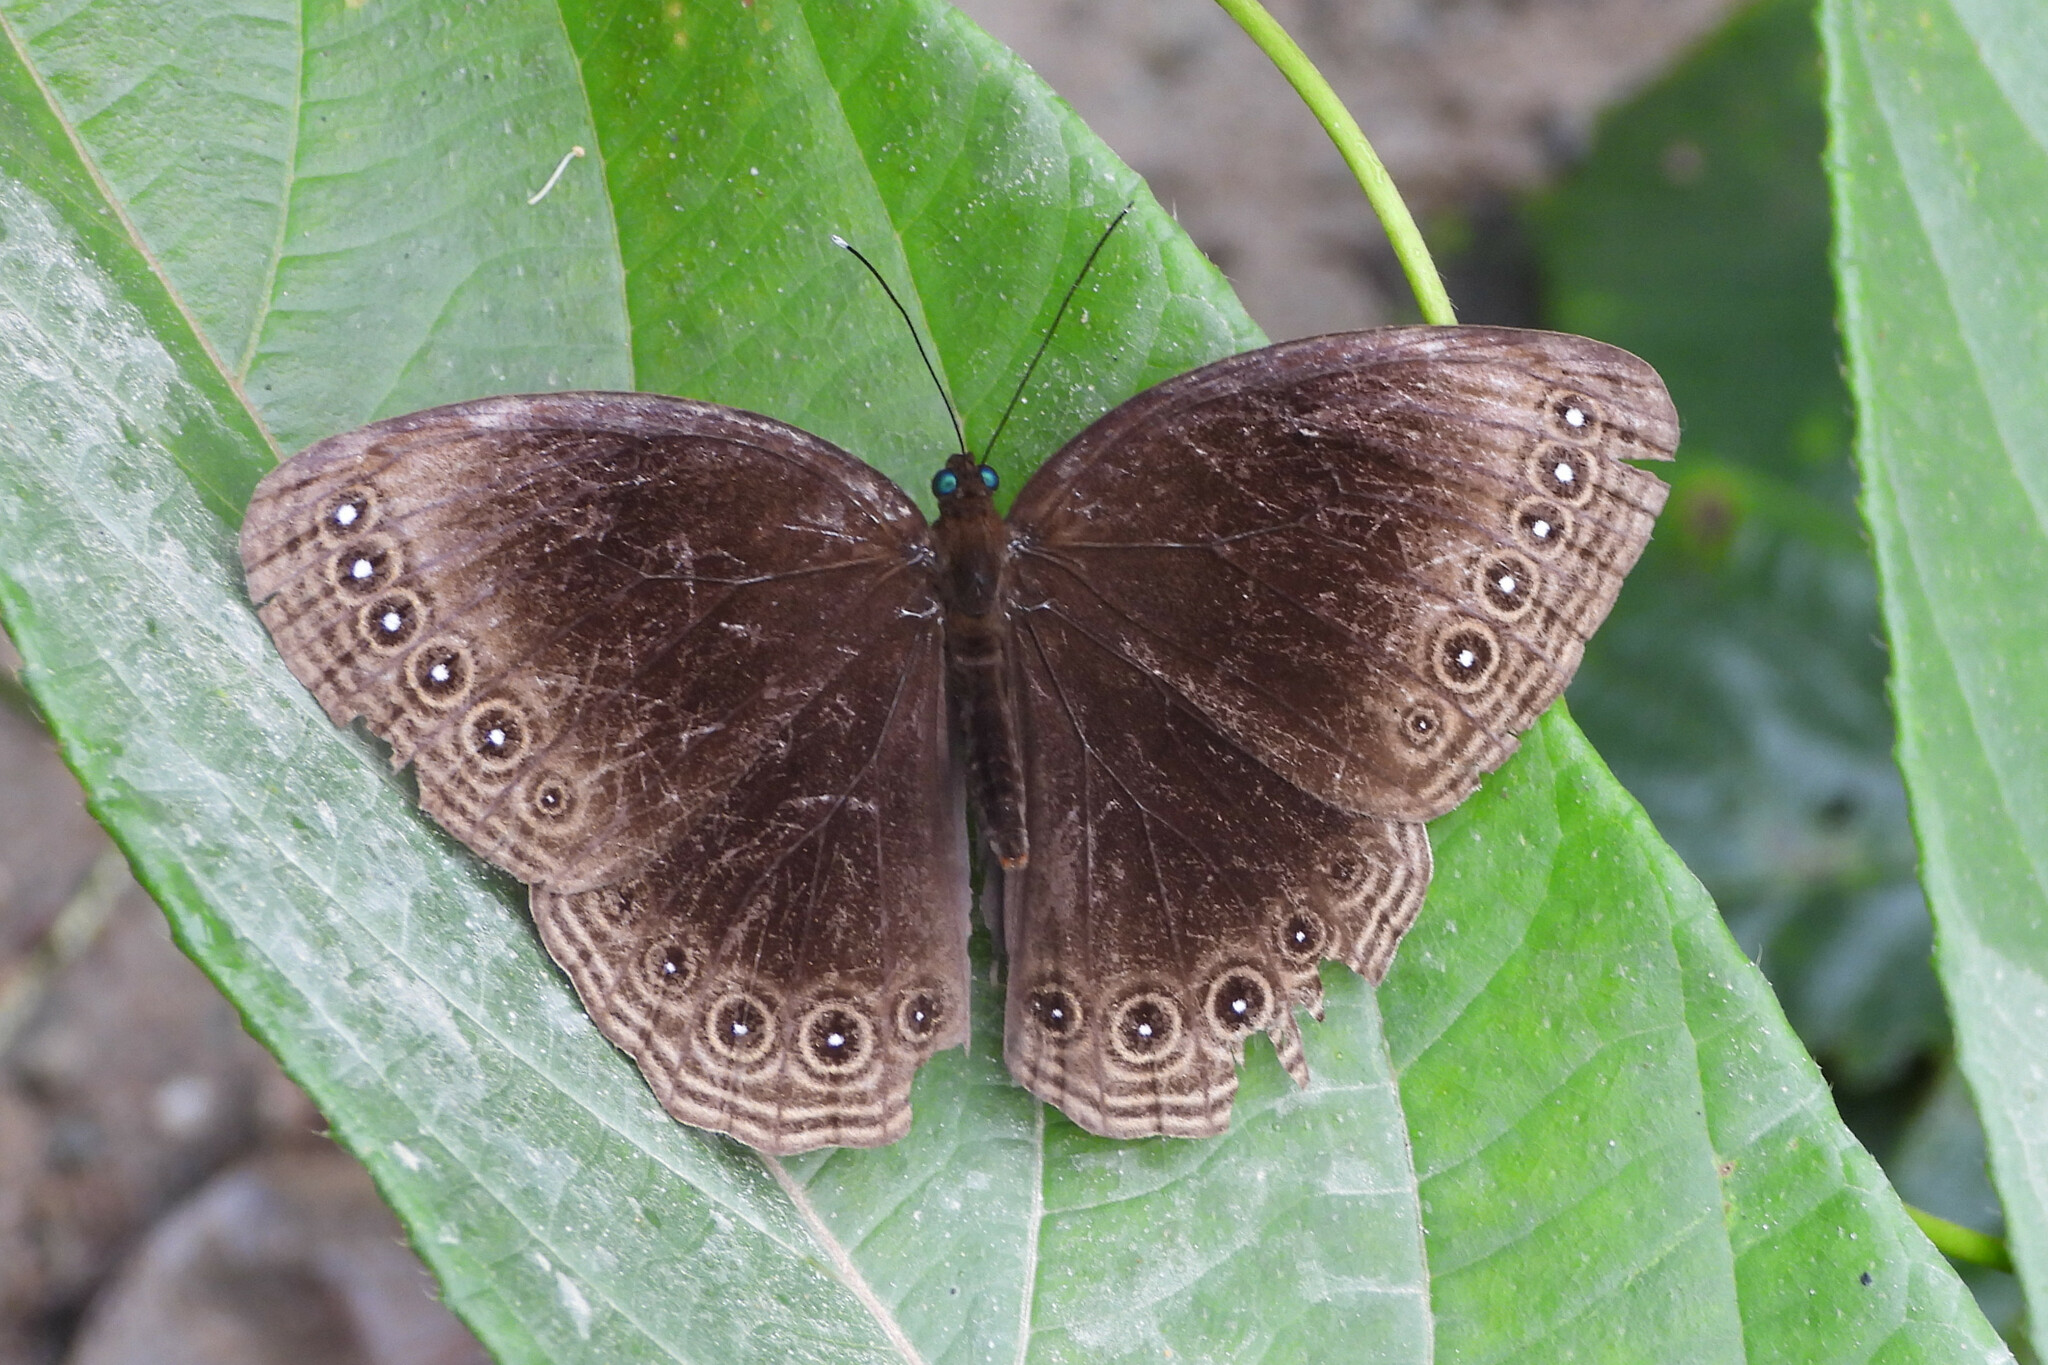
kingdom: Animalia
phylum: Arthropoda
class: Insecta
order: Lepidoptera
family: Nymphalidae
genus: Ethope
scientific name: Ethope himachala
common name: Dusky diadem
